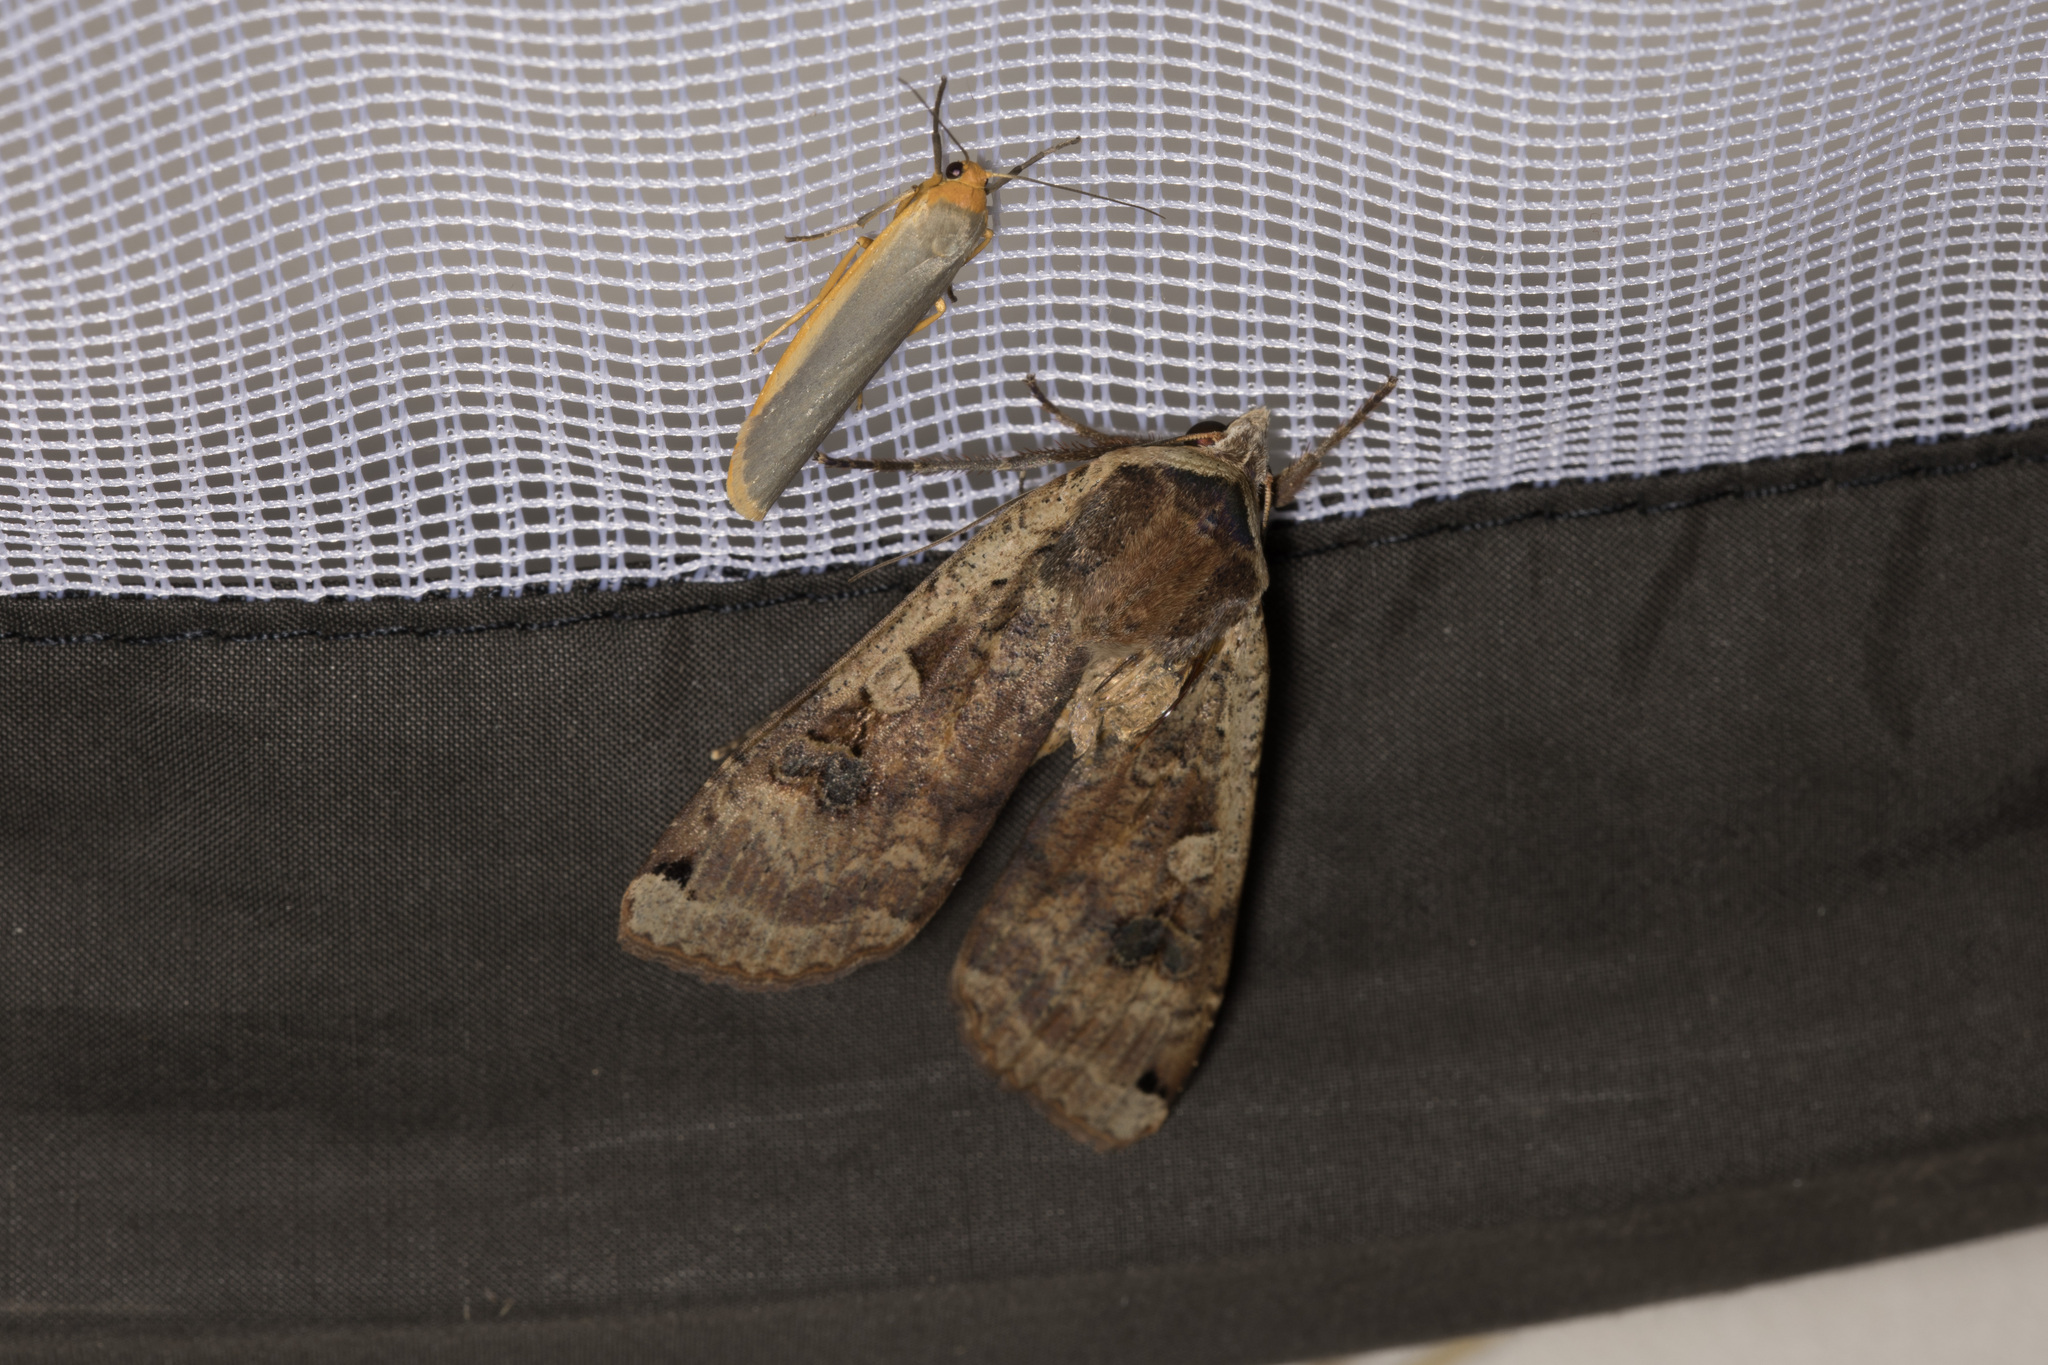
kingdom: Animalia
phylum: Arthropoda
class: Insecta
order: Lepidoptera
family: Erebidae
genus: Manulea
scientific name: Manulea complana
